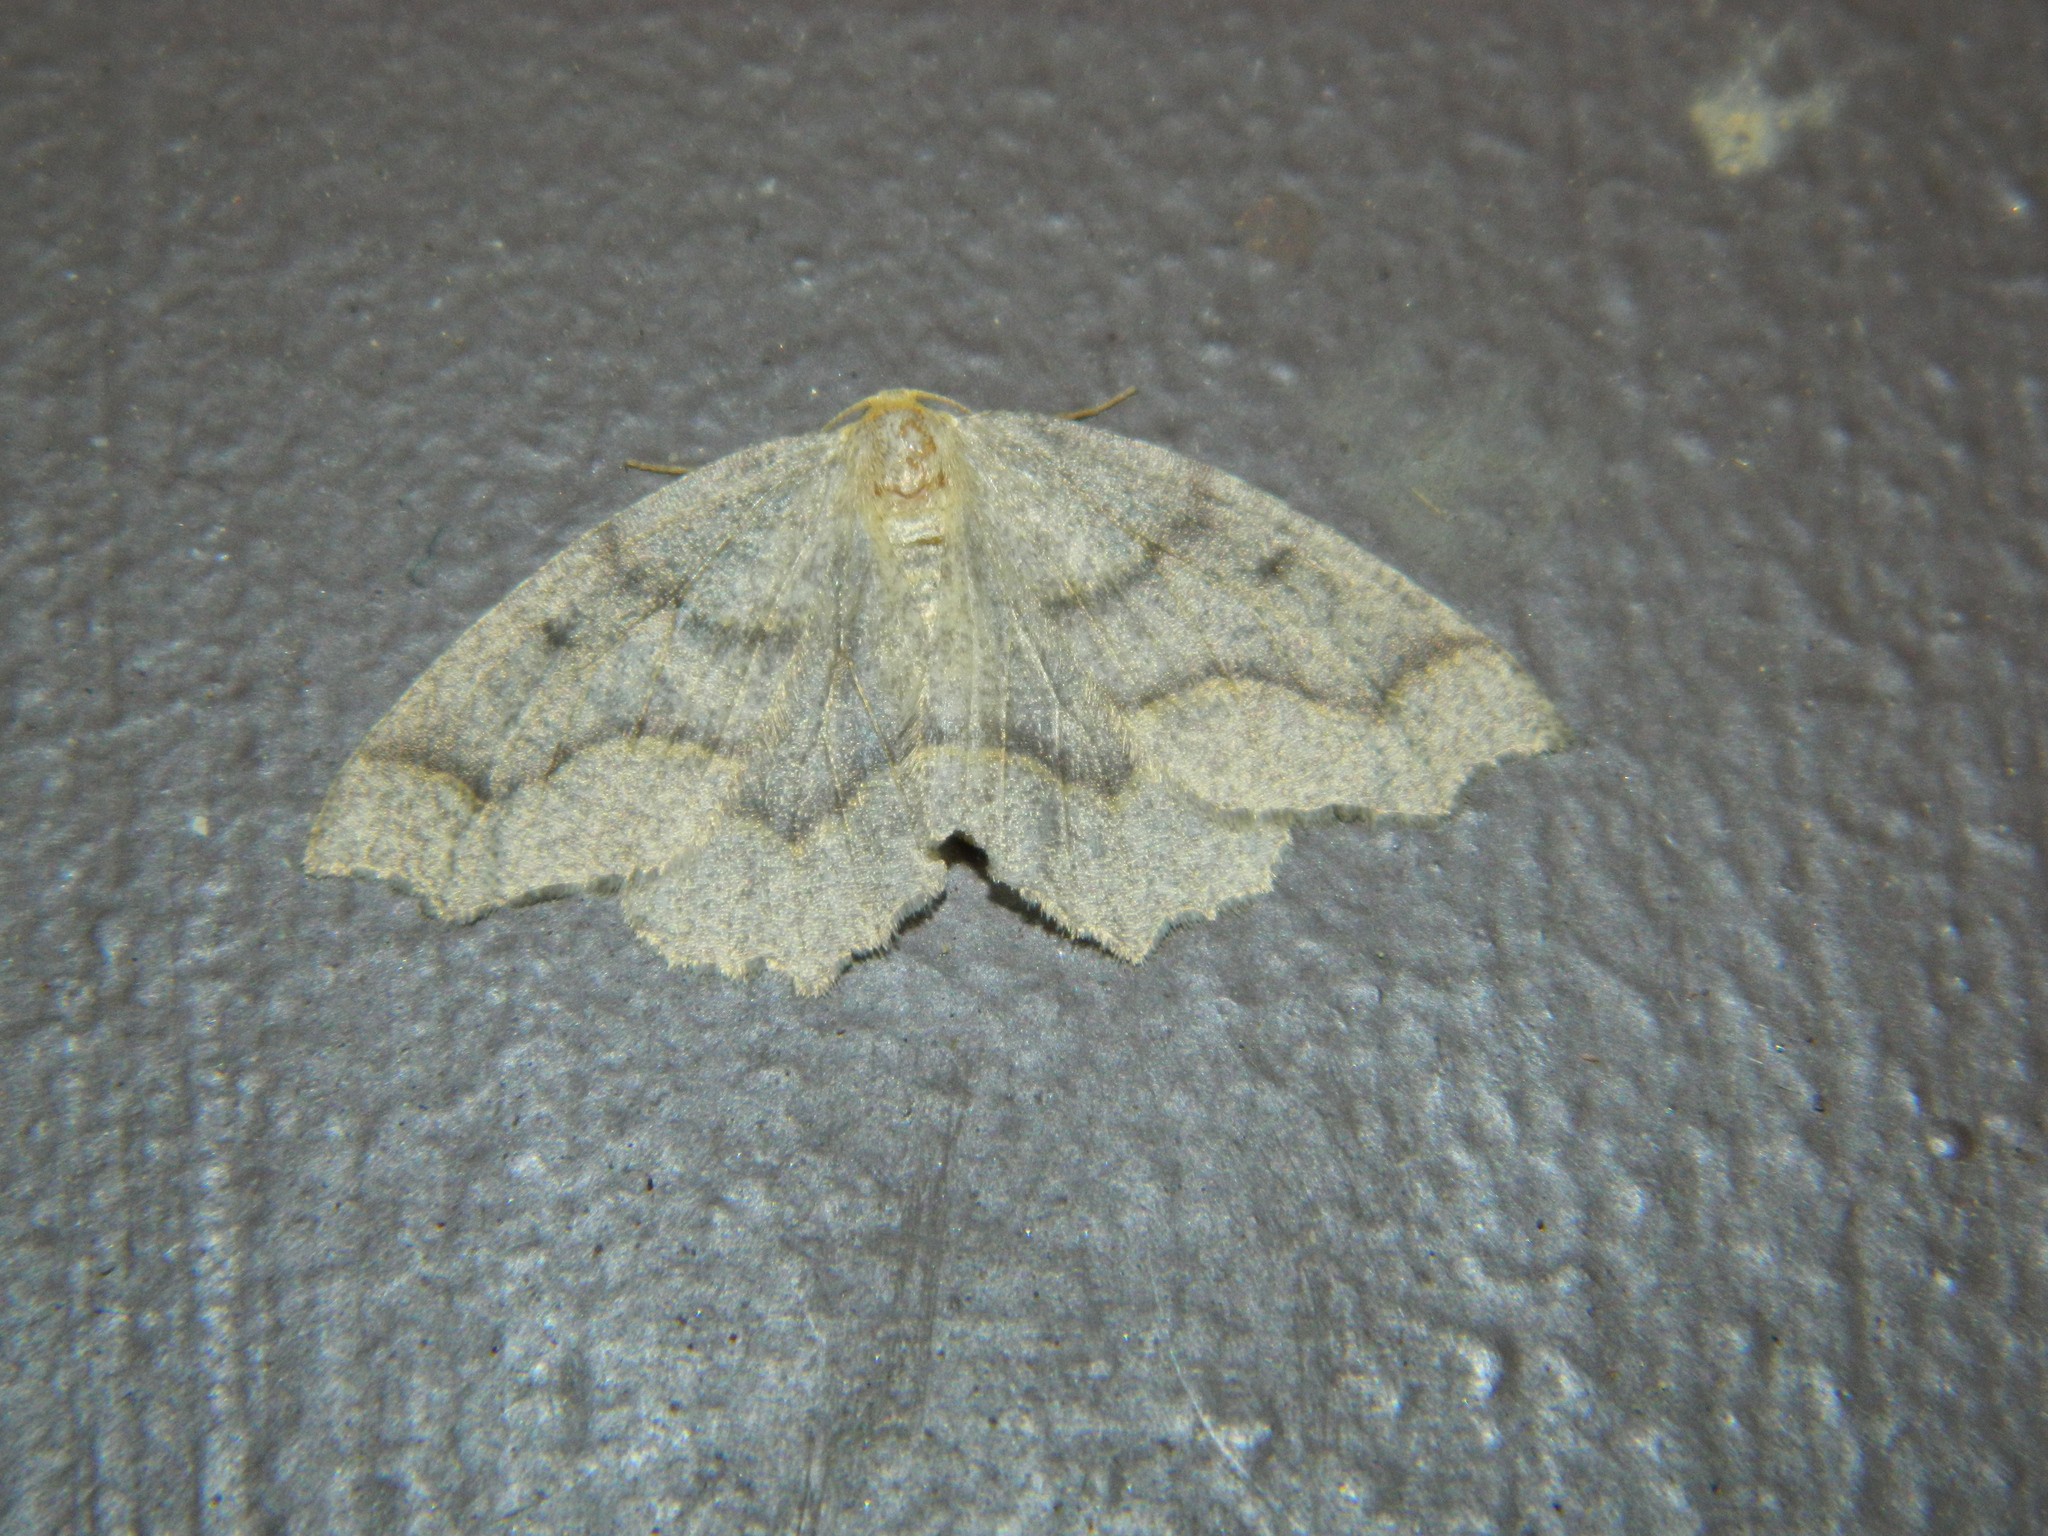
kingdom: Animalia
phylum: Arthropoda
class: Insecta
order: Lepidoptera
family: Geometridae
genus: Lambdina
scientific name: Lambdina fiscellaria
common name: Hemlock looper
